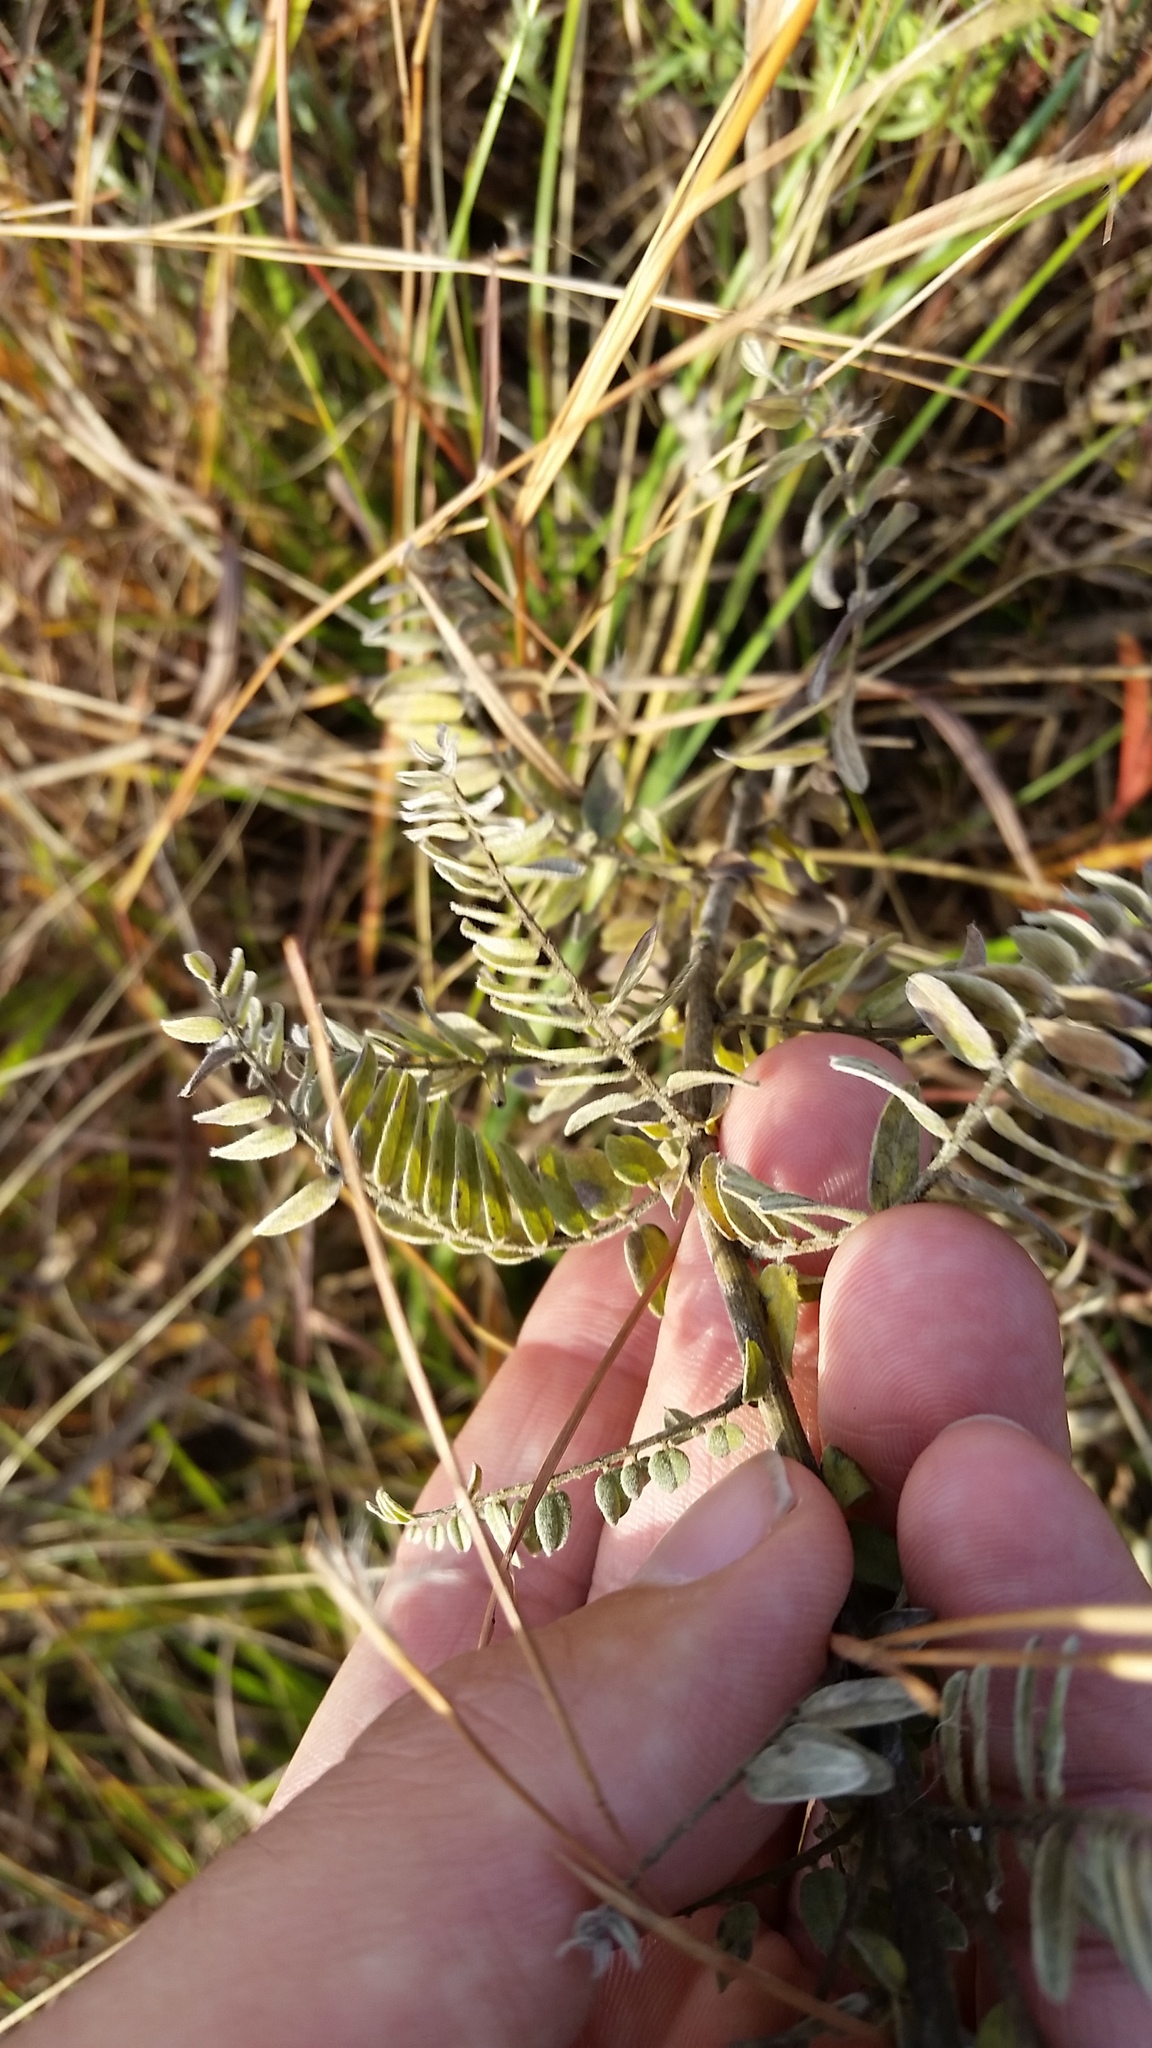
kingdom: Plantae
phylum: Tracheophyta
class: Magnoliopsida
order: Fabales
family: Fabaceae
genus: Amorpha
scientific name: Amorpha canescens
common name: Leadplant
